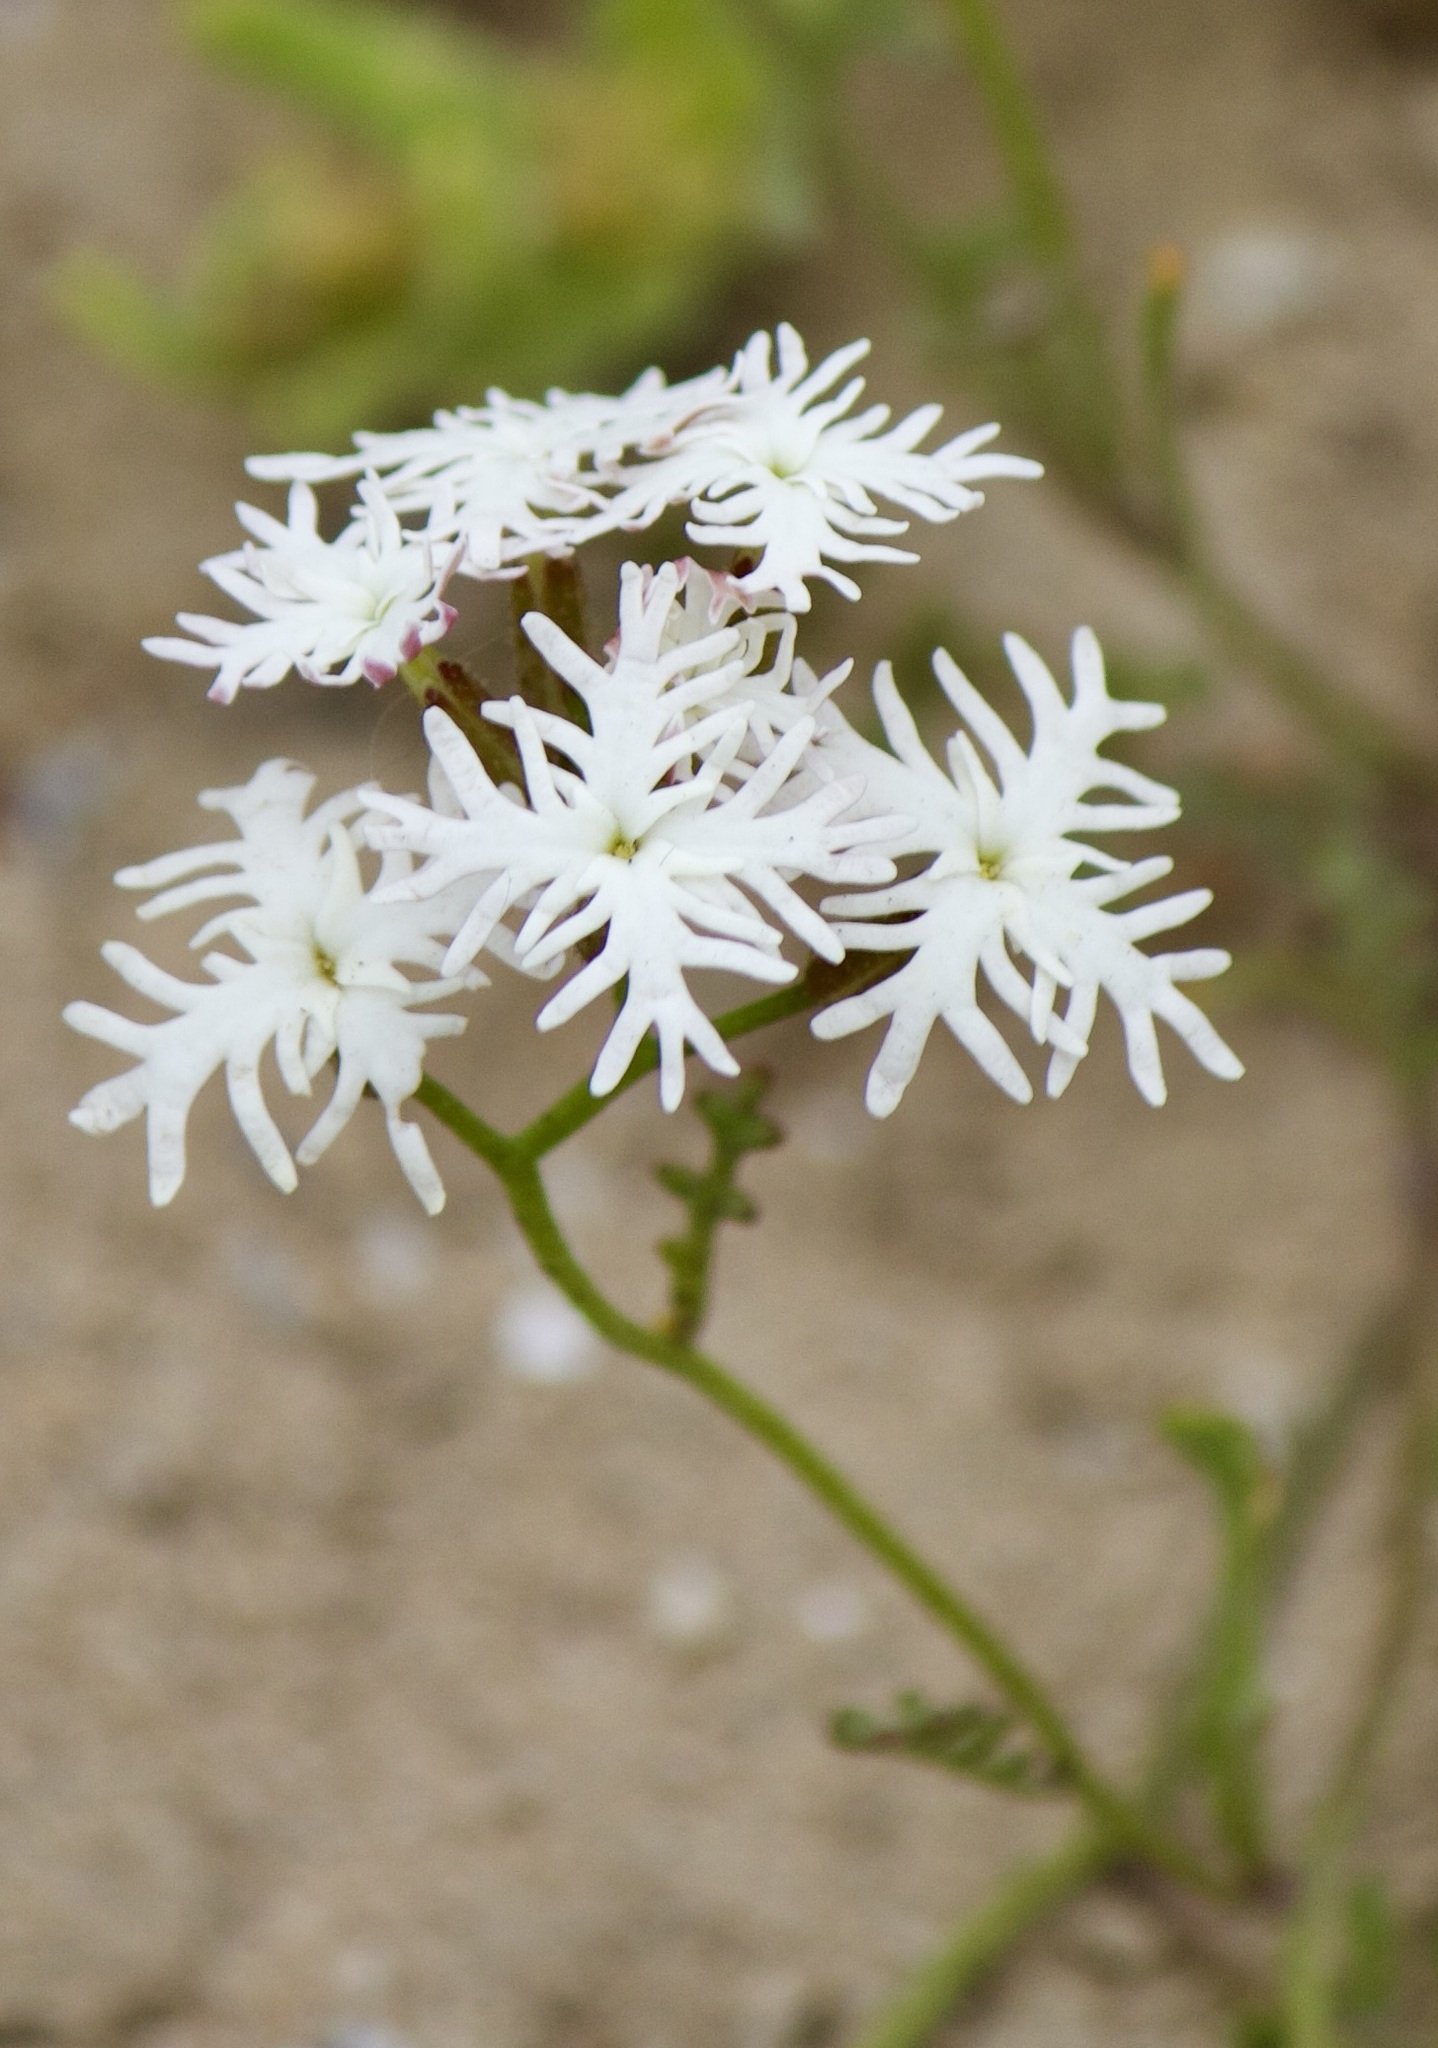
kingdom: Plantae
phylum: Tracheophyta
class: Magnoliopsida
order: Brassicales
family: Brassicaceae
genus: Schizopetalon
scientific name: Schizopetalon maritimum
